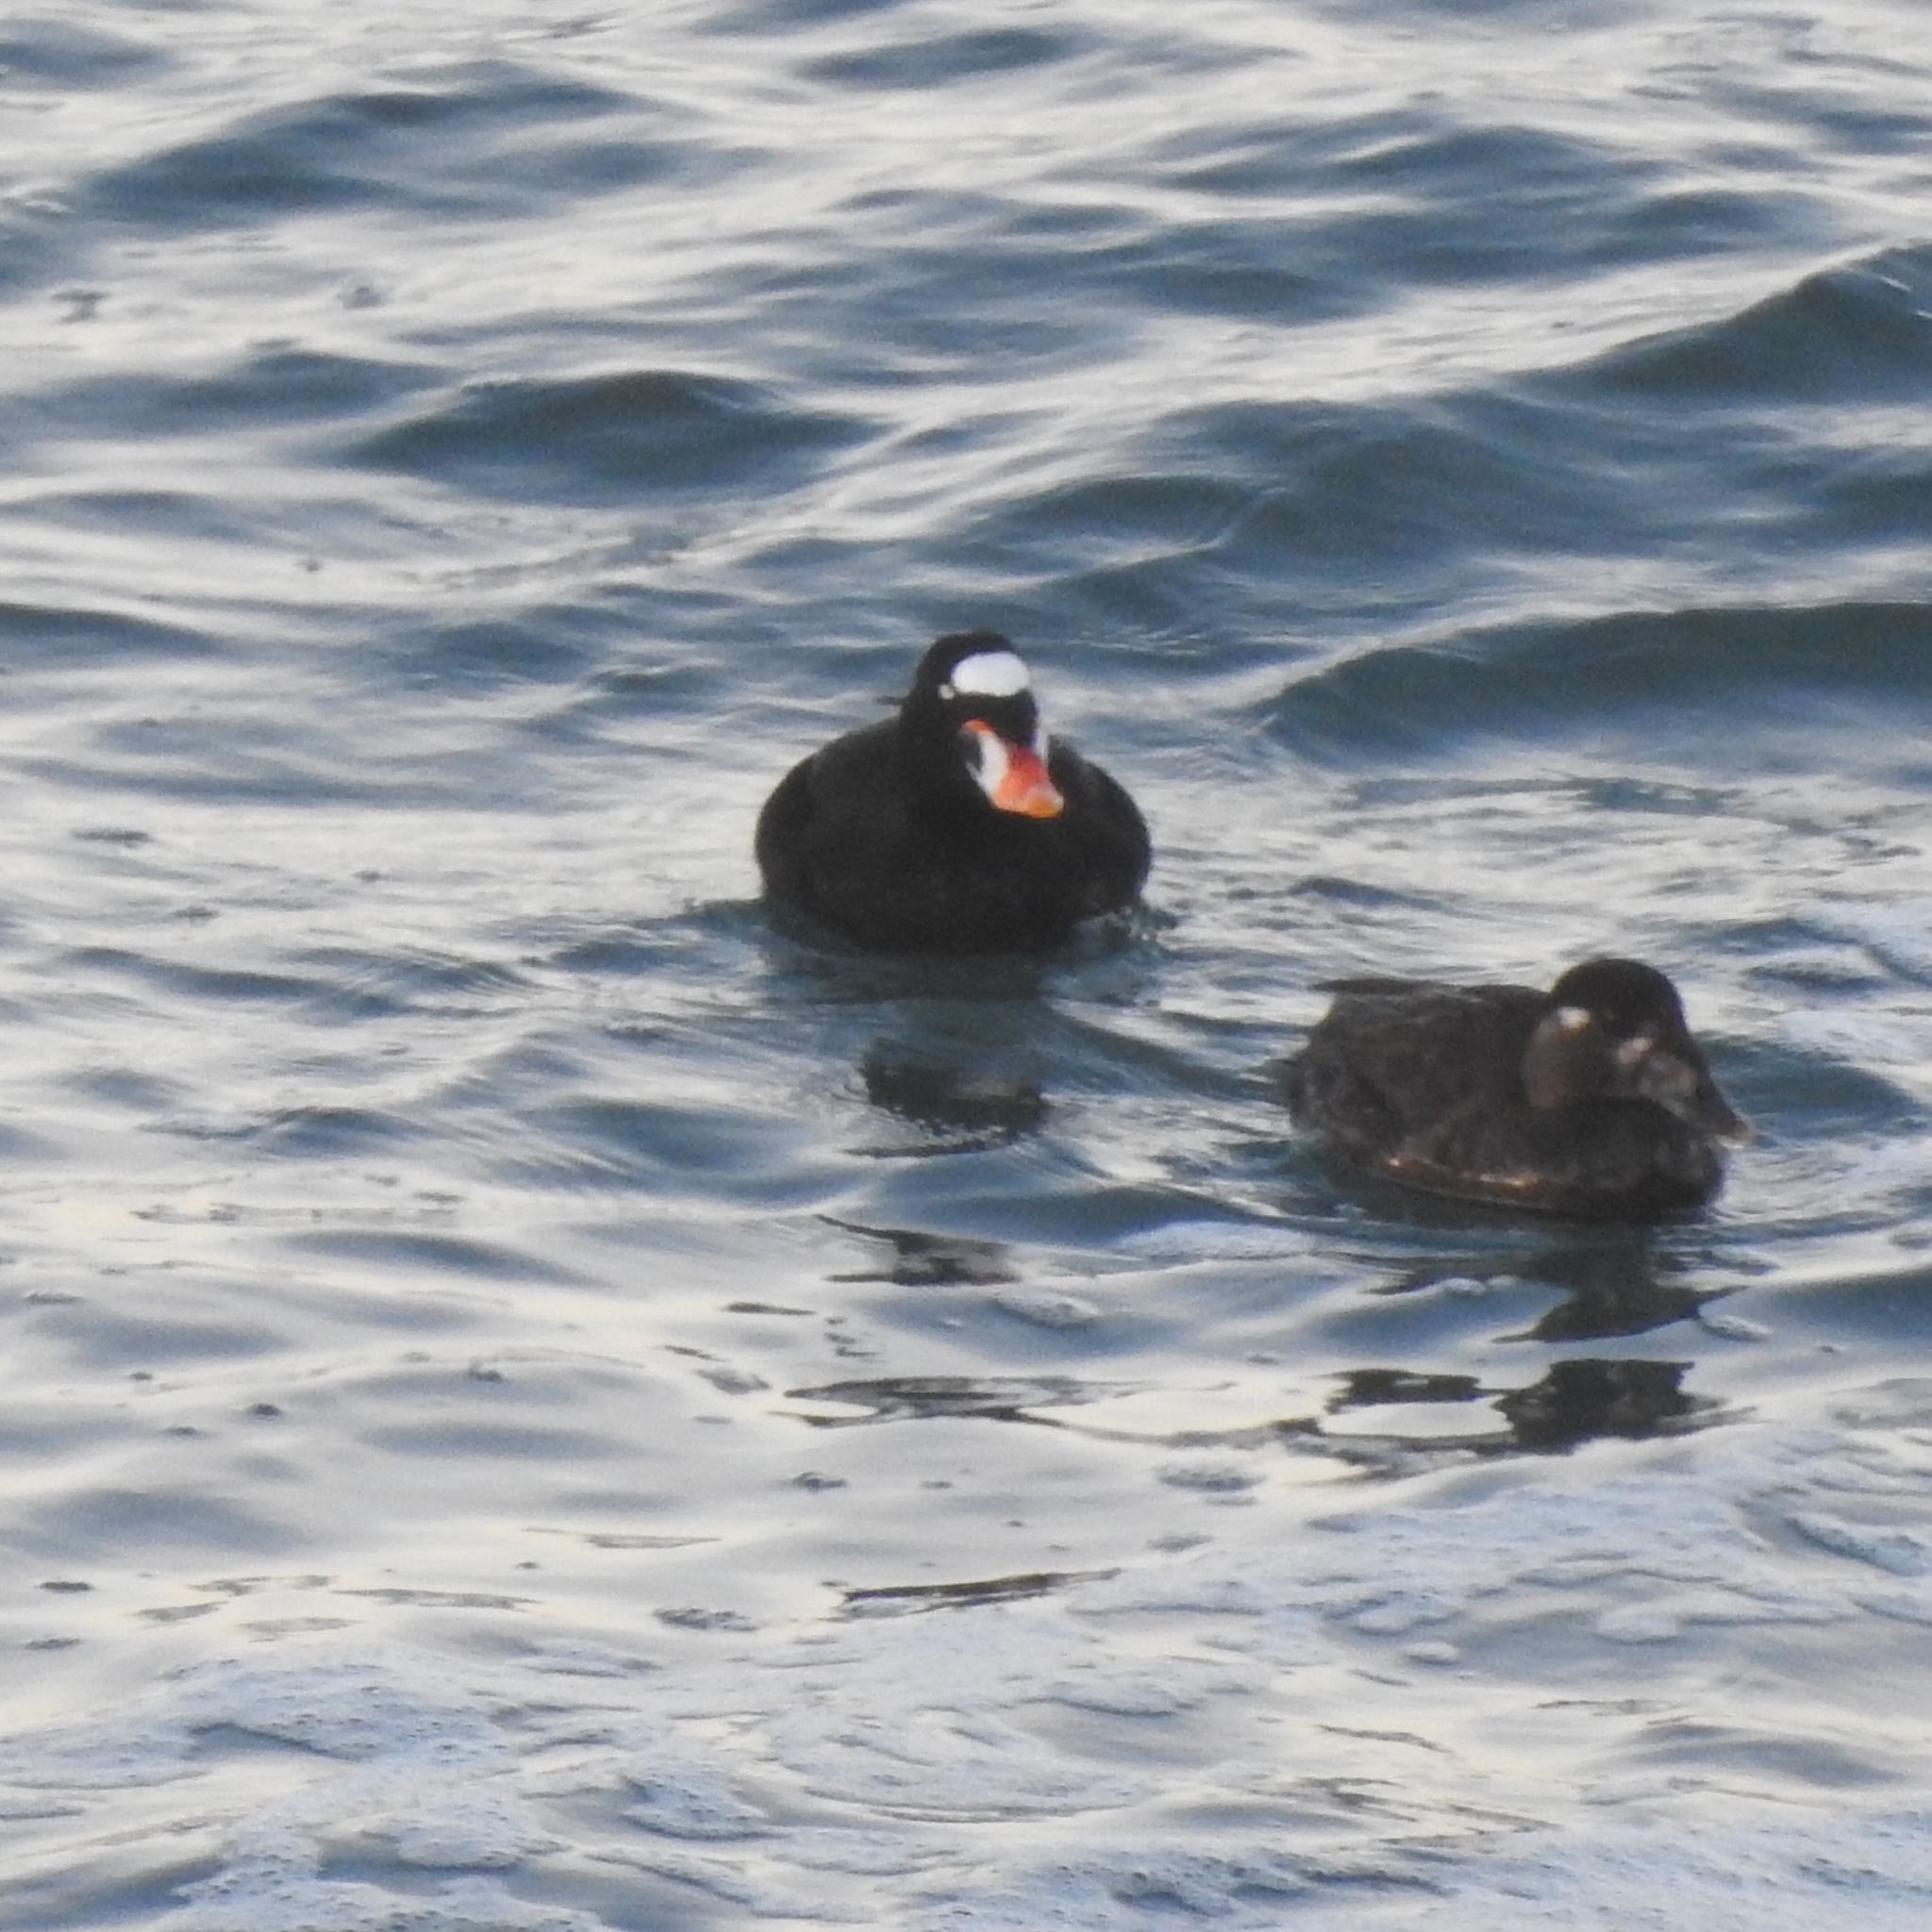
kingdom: Animalia
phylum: Chordata
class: Aves
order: Anseriformes
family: Anatidae
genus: Melanitta
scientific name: Melanitta perspicillata
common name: Surf scoter
